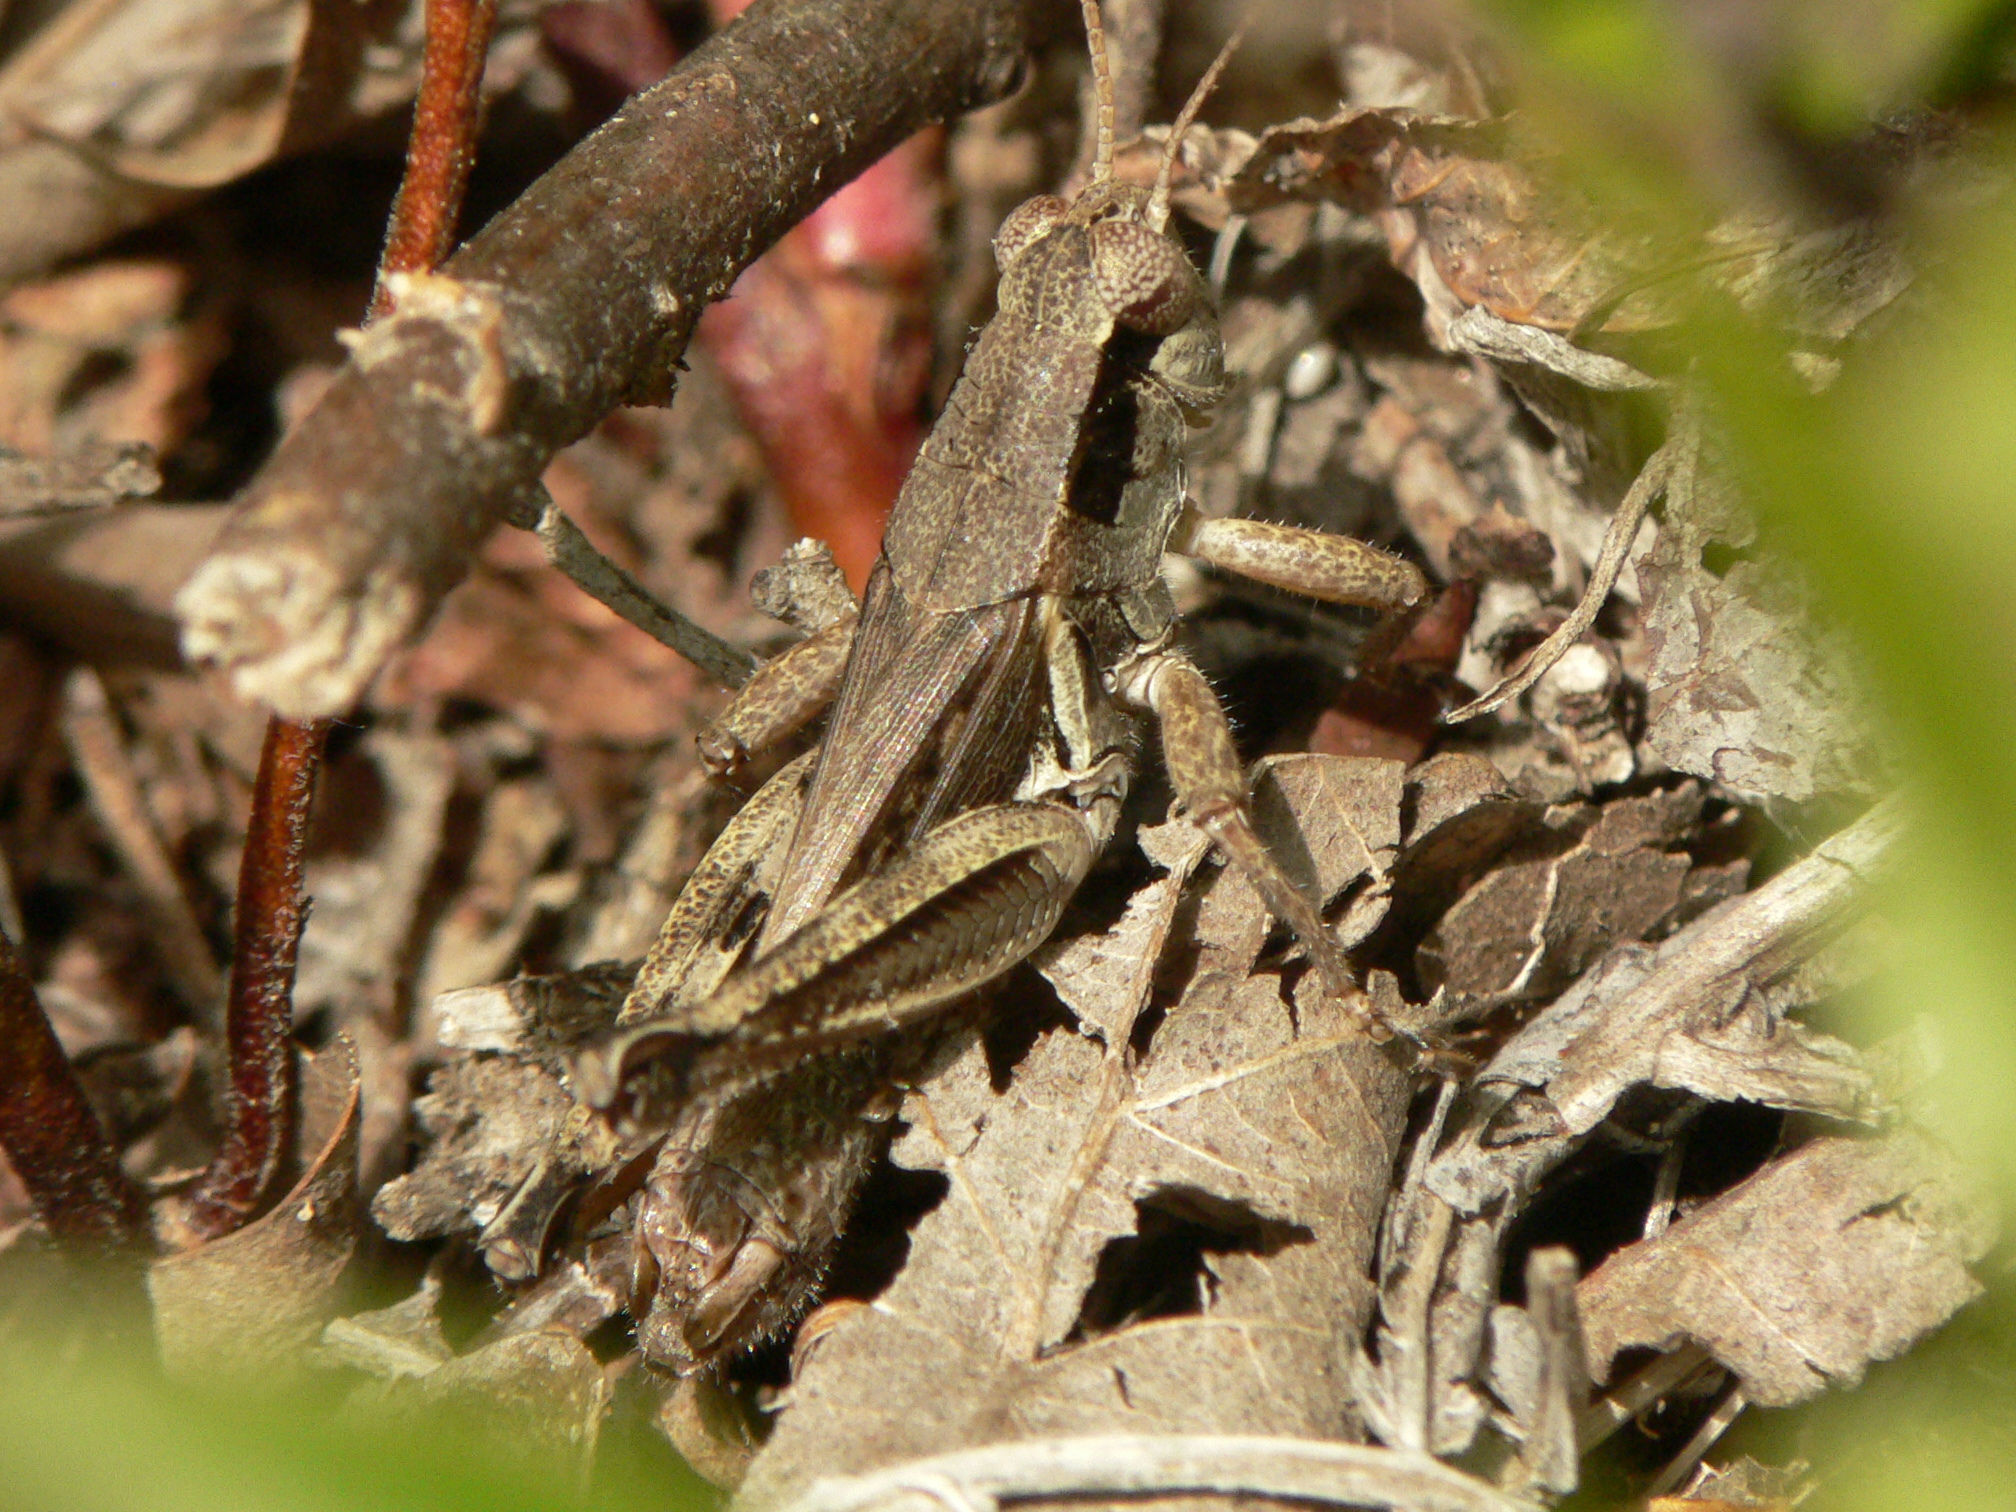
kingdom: Animalia
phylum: Arthropoda
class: Insecta
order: Orthoptera
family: Acrididae
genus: Melanoplus
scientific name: Melanoplus fasciatus
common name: Huckleberry locust
